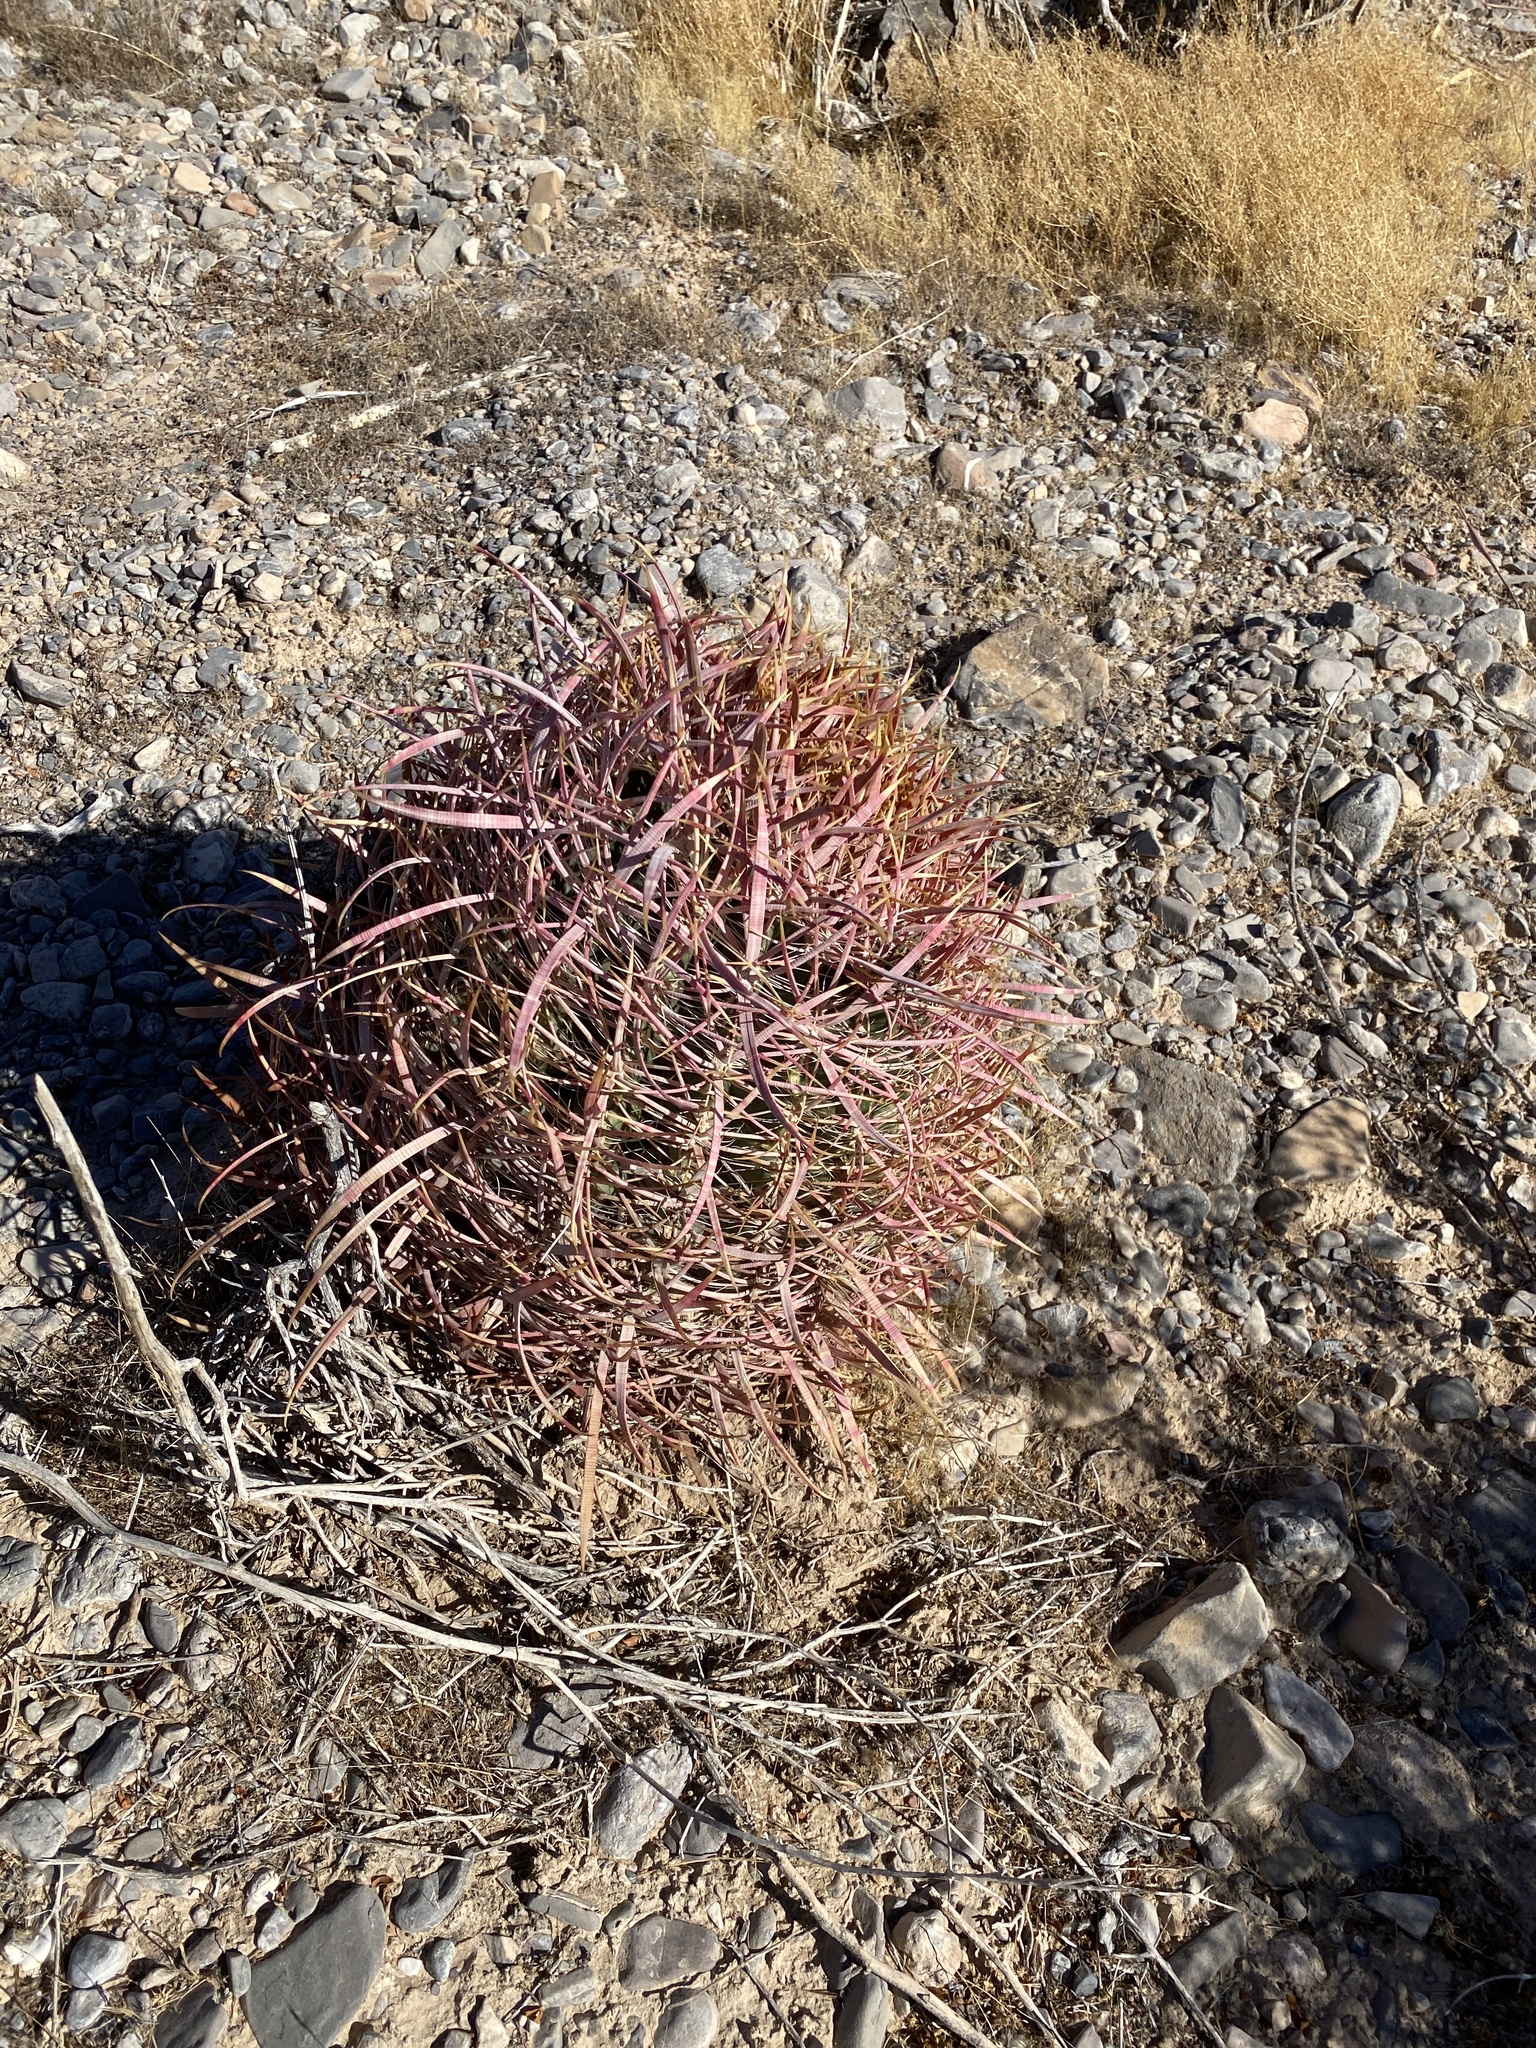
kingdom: Plantae
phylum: Tracheophyta
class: Magnoliopsida
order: Caryophyllales
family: Cactaceae
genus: Ferocactus
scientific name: Ferocactus cylindraceus
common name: California barrel cactus
